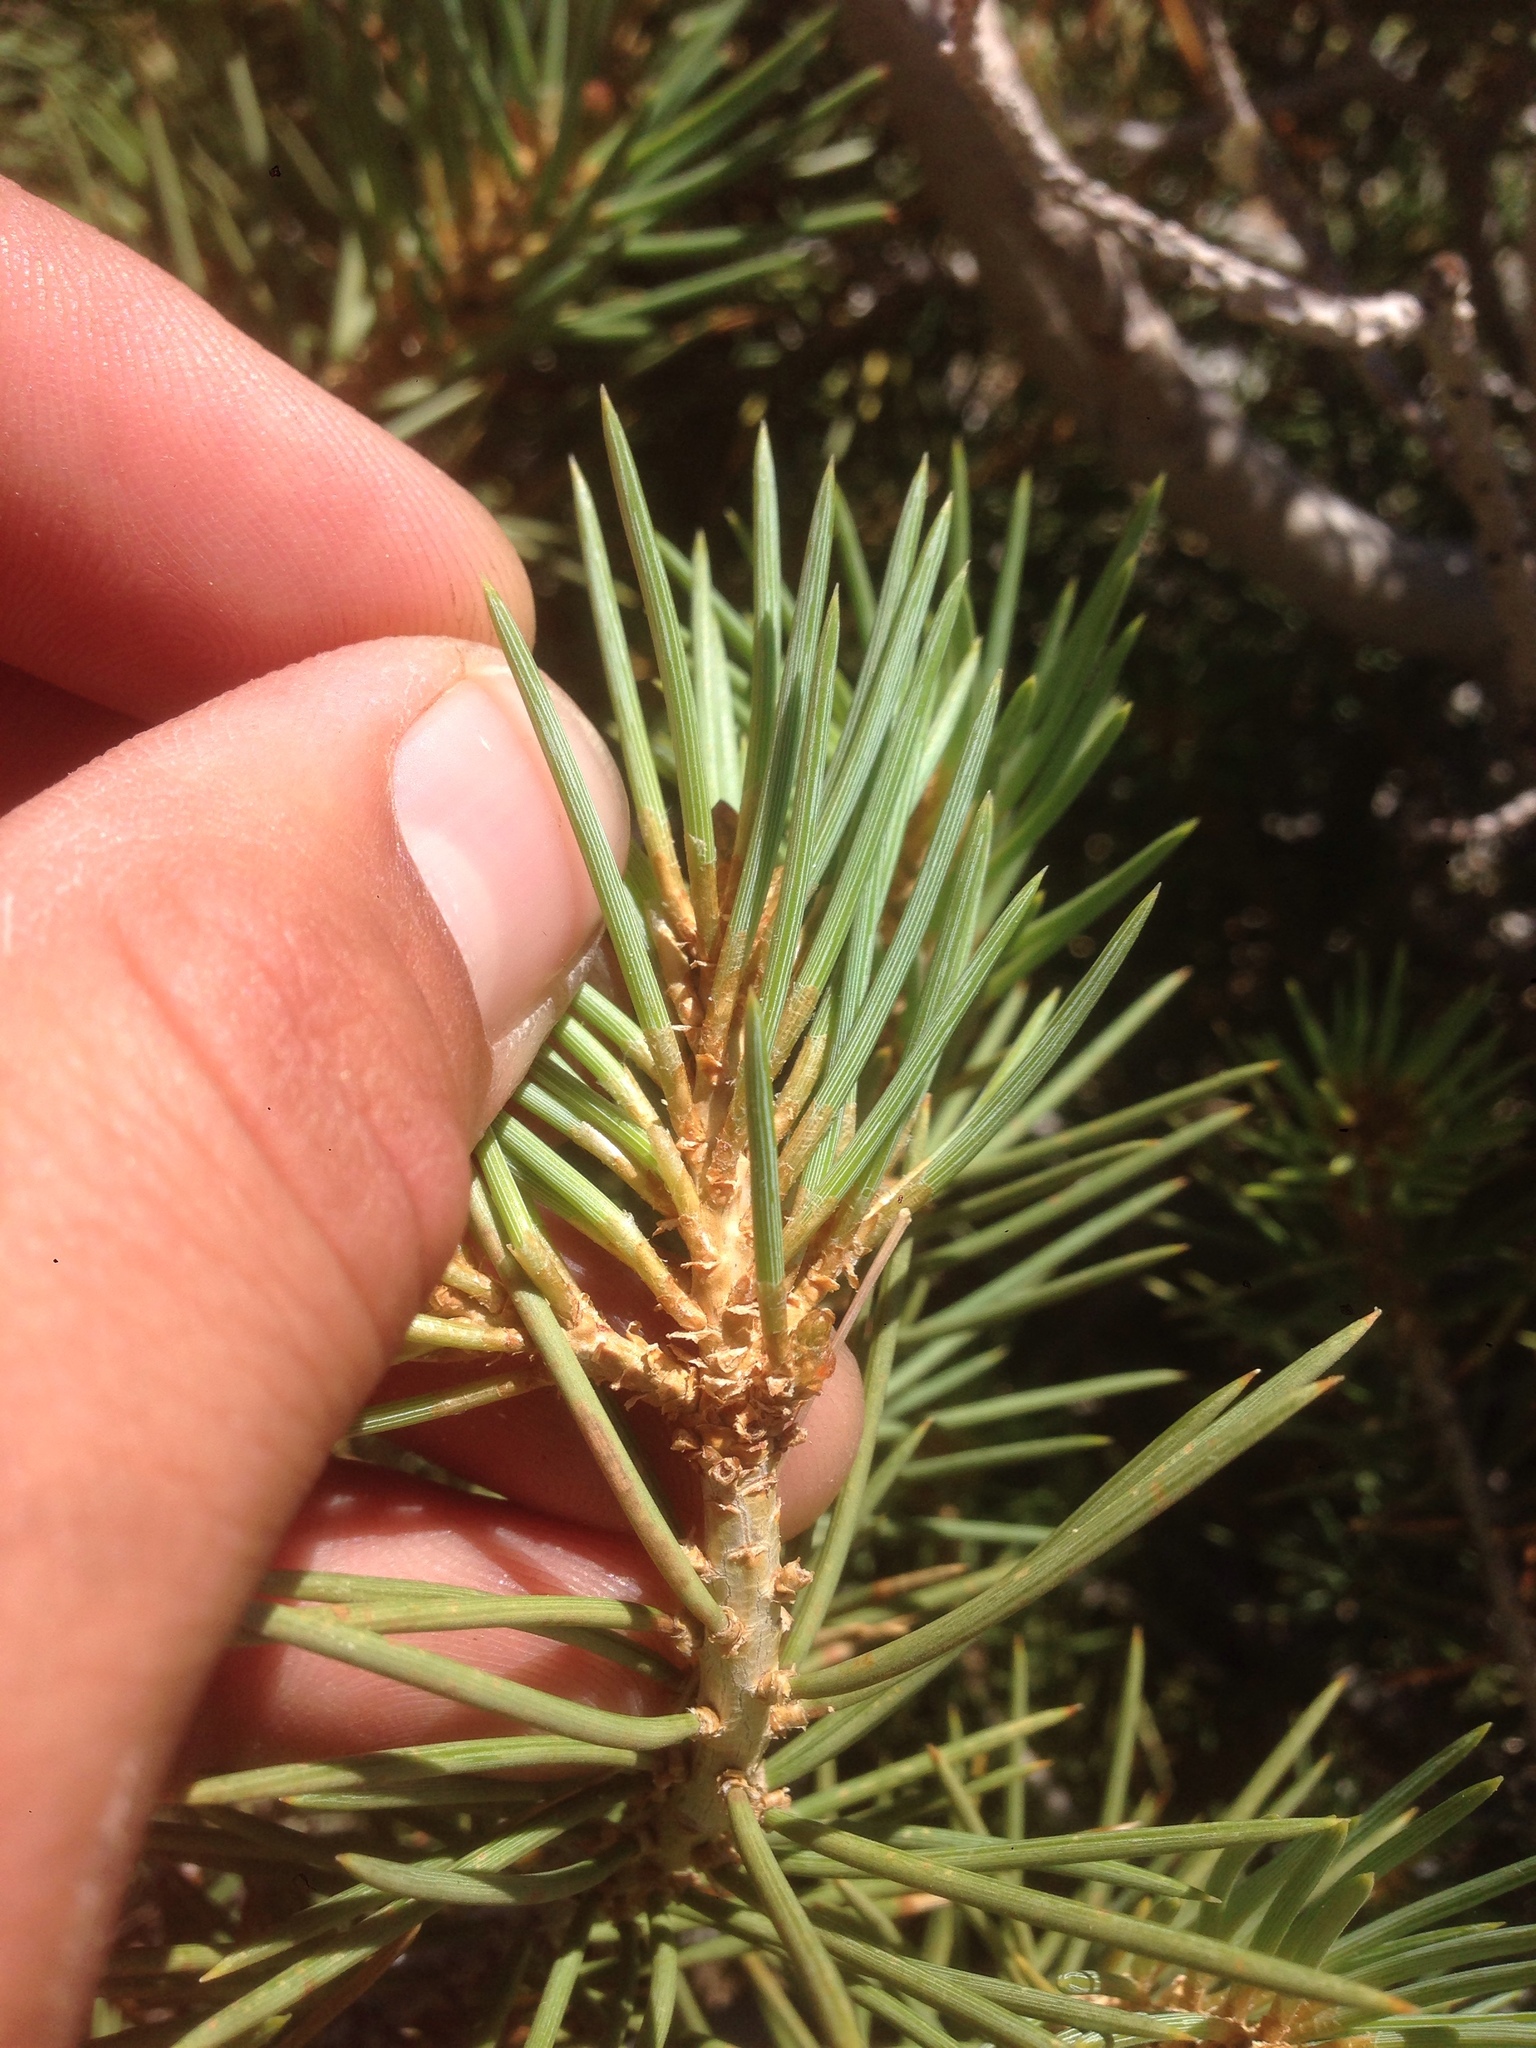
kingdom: Plantae
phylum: Tracheophyta
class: Pinopsida
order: Pinales
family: Pinaceae
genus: Pinus
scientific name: Pinus monophylla
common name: One-leaved nut pine
